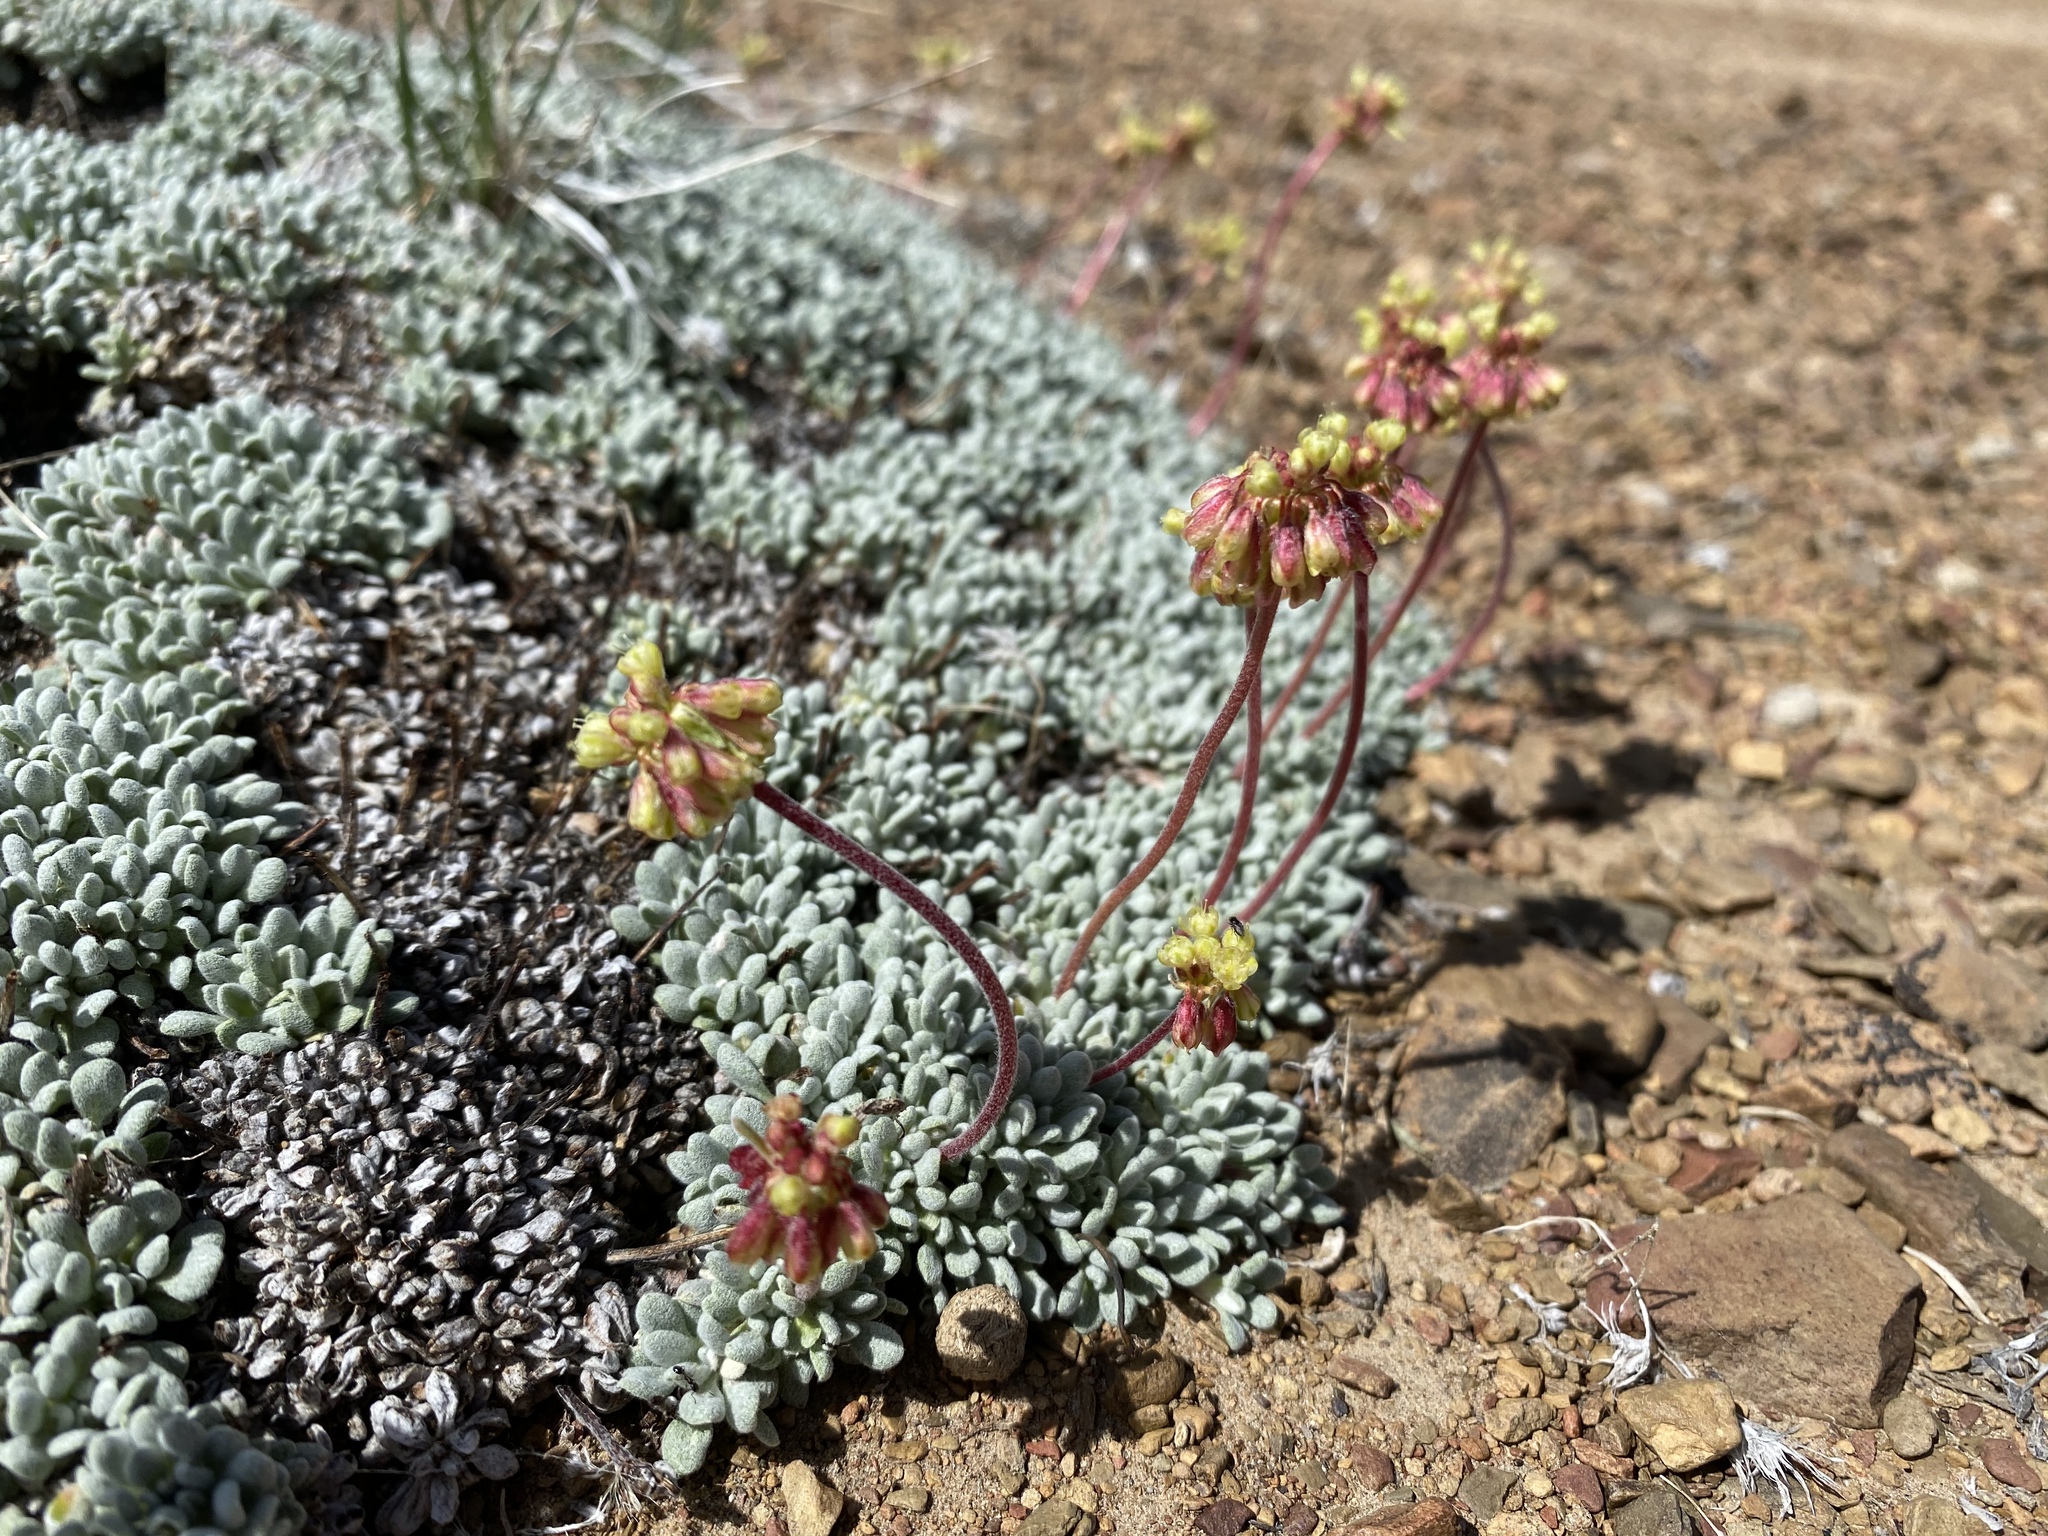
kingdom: Plantae
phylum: Tracheophyta
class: Magnoliopsida
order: Caryophyllales
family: Polygonaceae
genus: Eriogonum
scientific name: Eriogonum caespitosum
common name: Matted wild buckwheat
